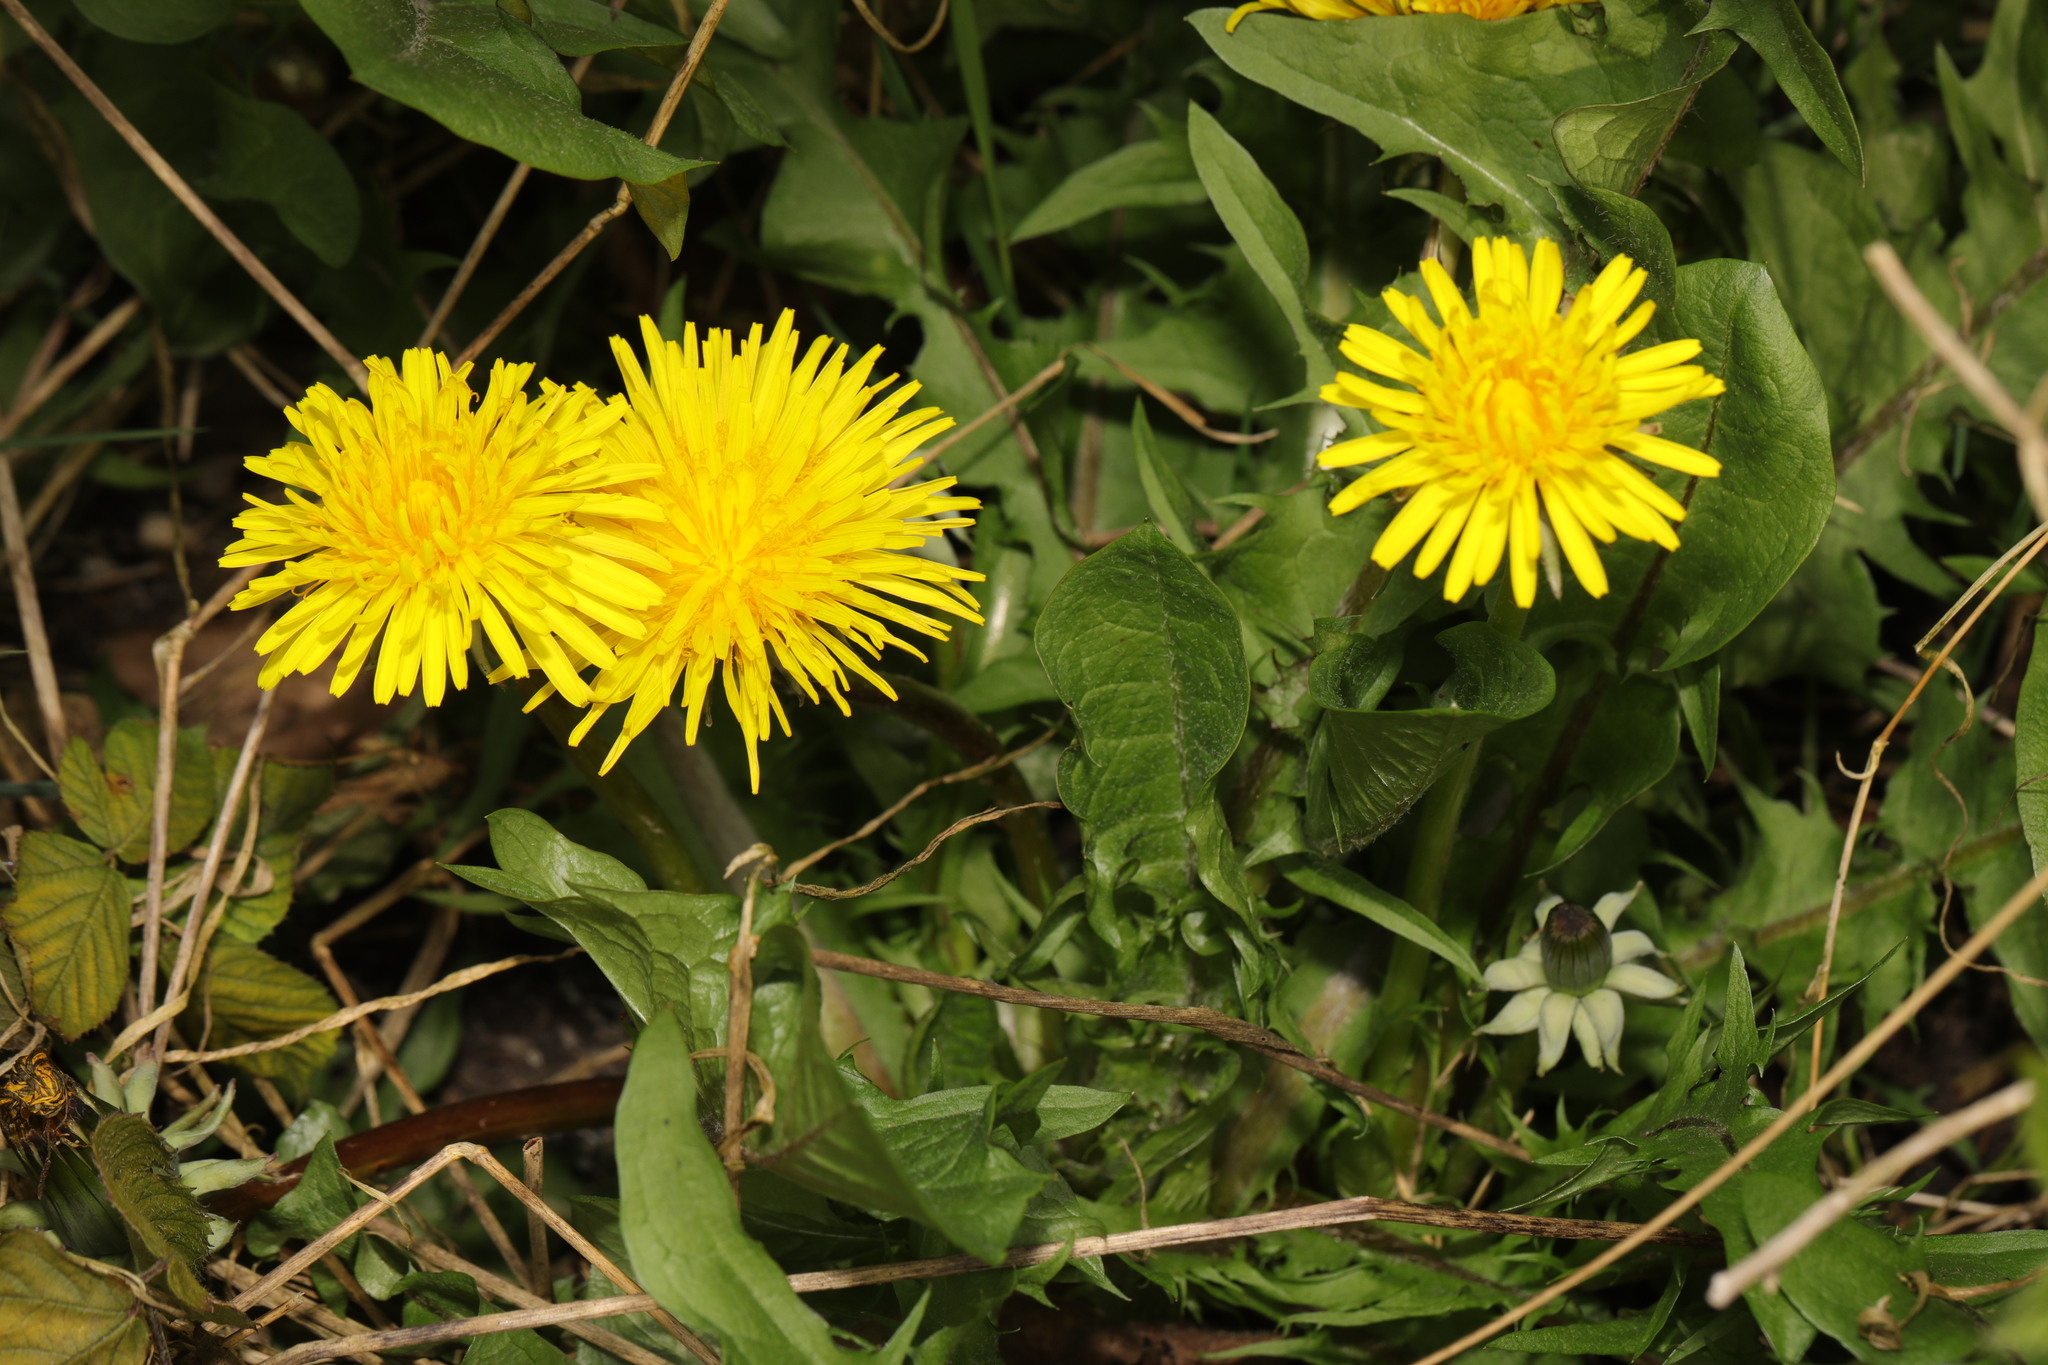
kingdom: Plantae
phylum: Tracheophyta
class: Magnoliopsida
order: Asterales
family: Asteraceae
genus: Taraxacum
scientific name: Taraxacum officinale
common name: Common dandelion
